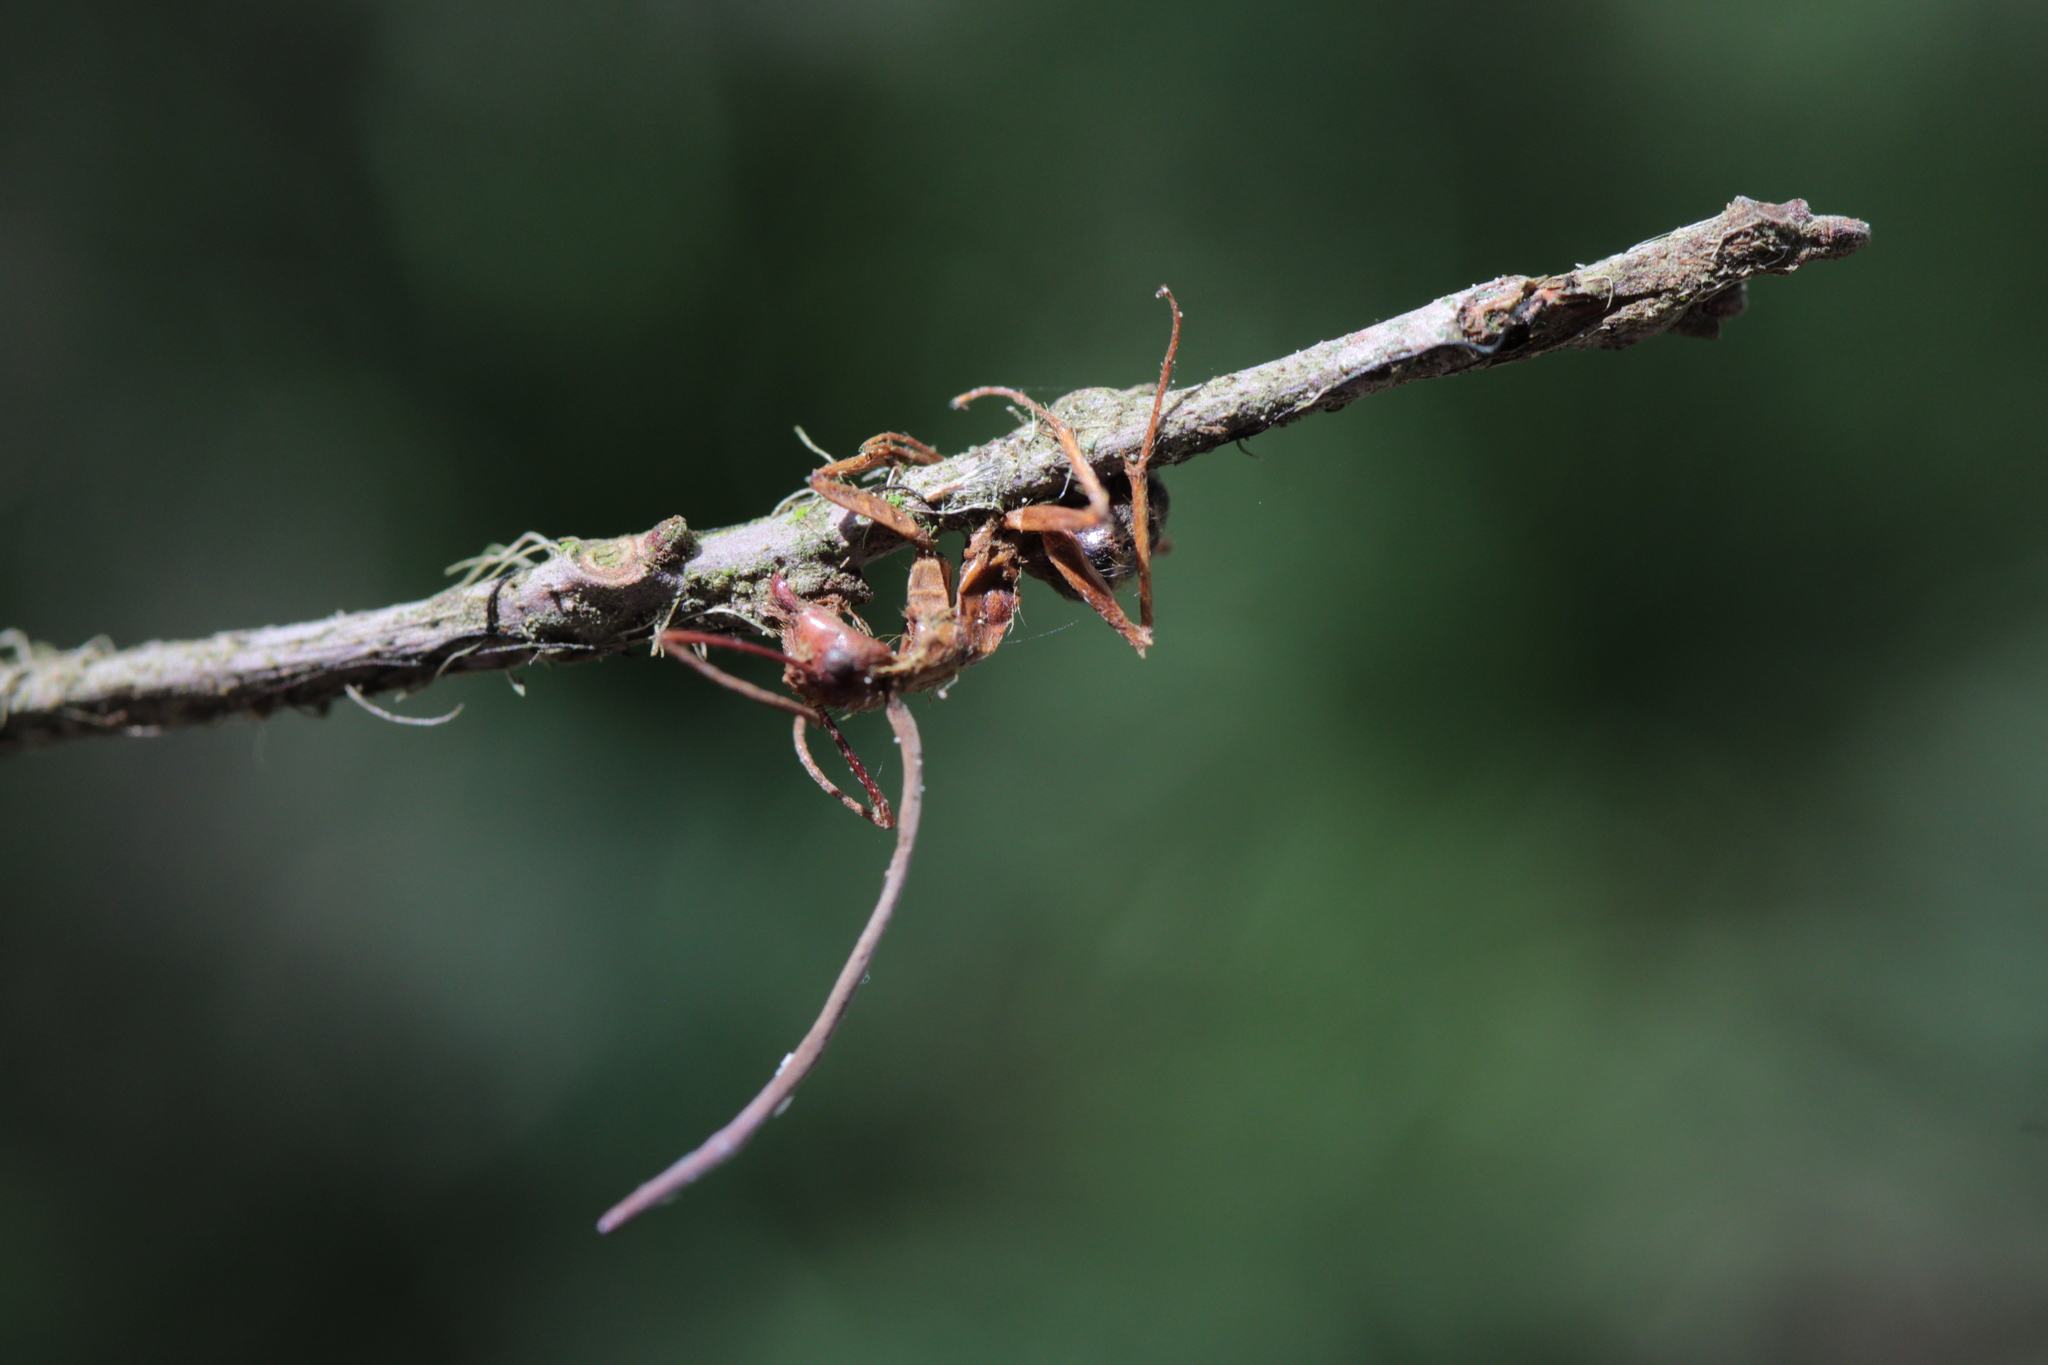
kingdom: Fungi
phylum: Ascomycota
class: Sordariomycetes
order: Hypocreales
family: Ophiocordycipitaceae
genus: Ophiocordyceps
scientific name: Ophiocordyceps camponoti-floridani
